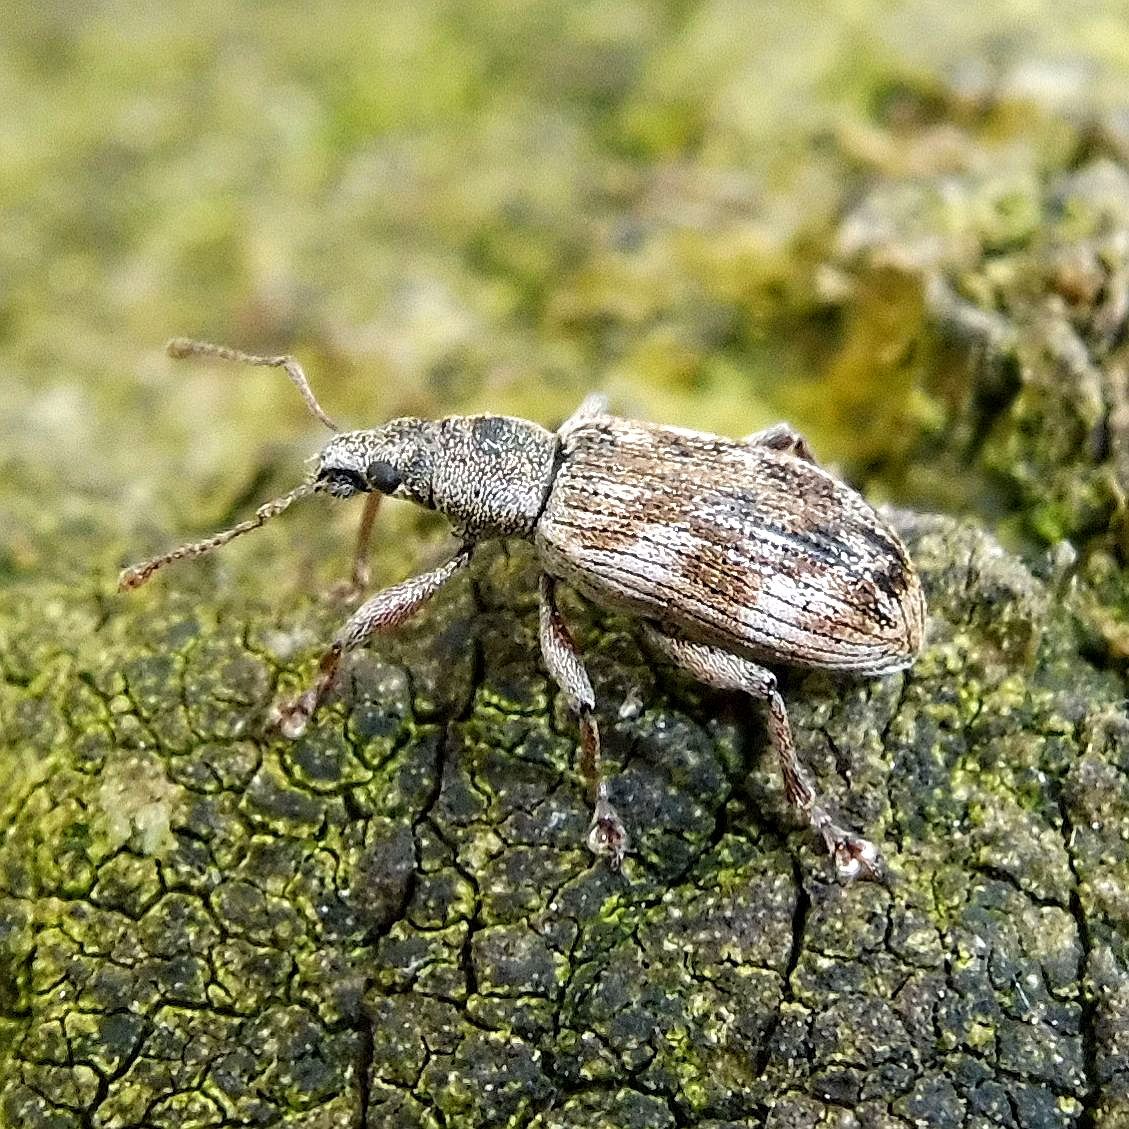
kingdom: Animalia
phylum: Arthropoda
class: Insecta
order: Coleoptera
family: Curculionidae
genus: Polydrusus
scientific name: Polydrusus tereticollis
